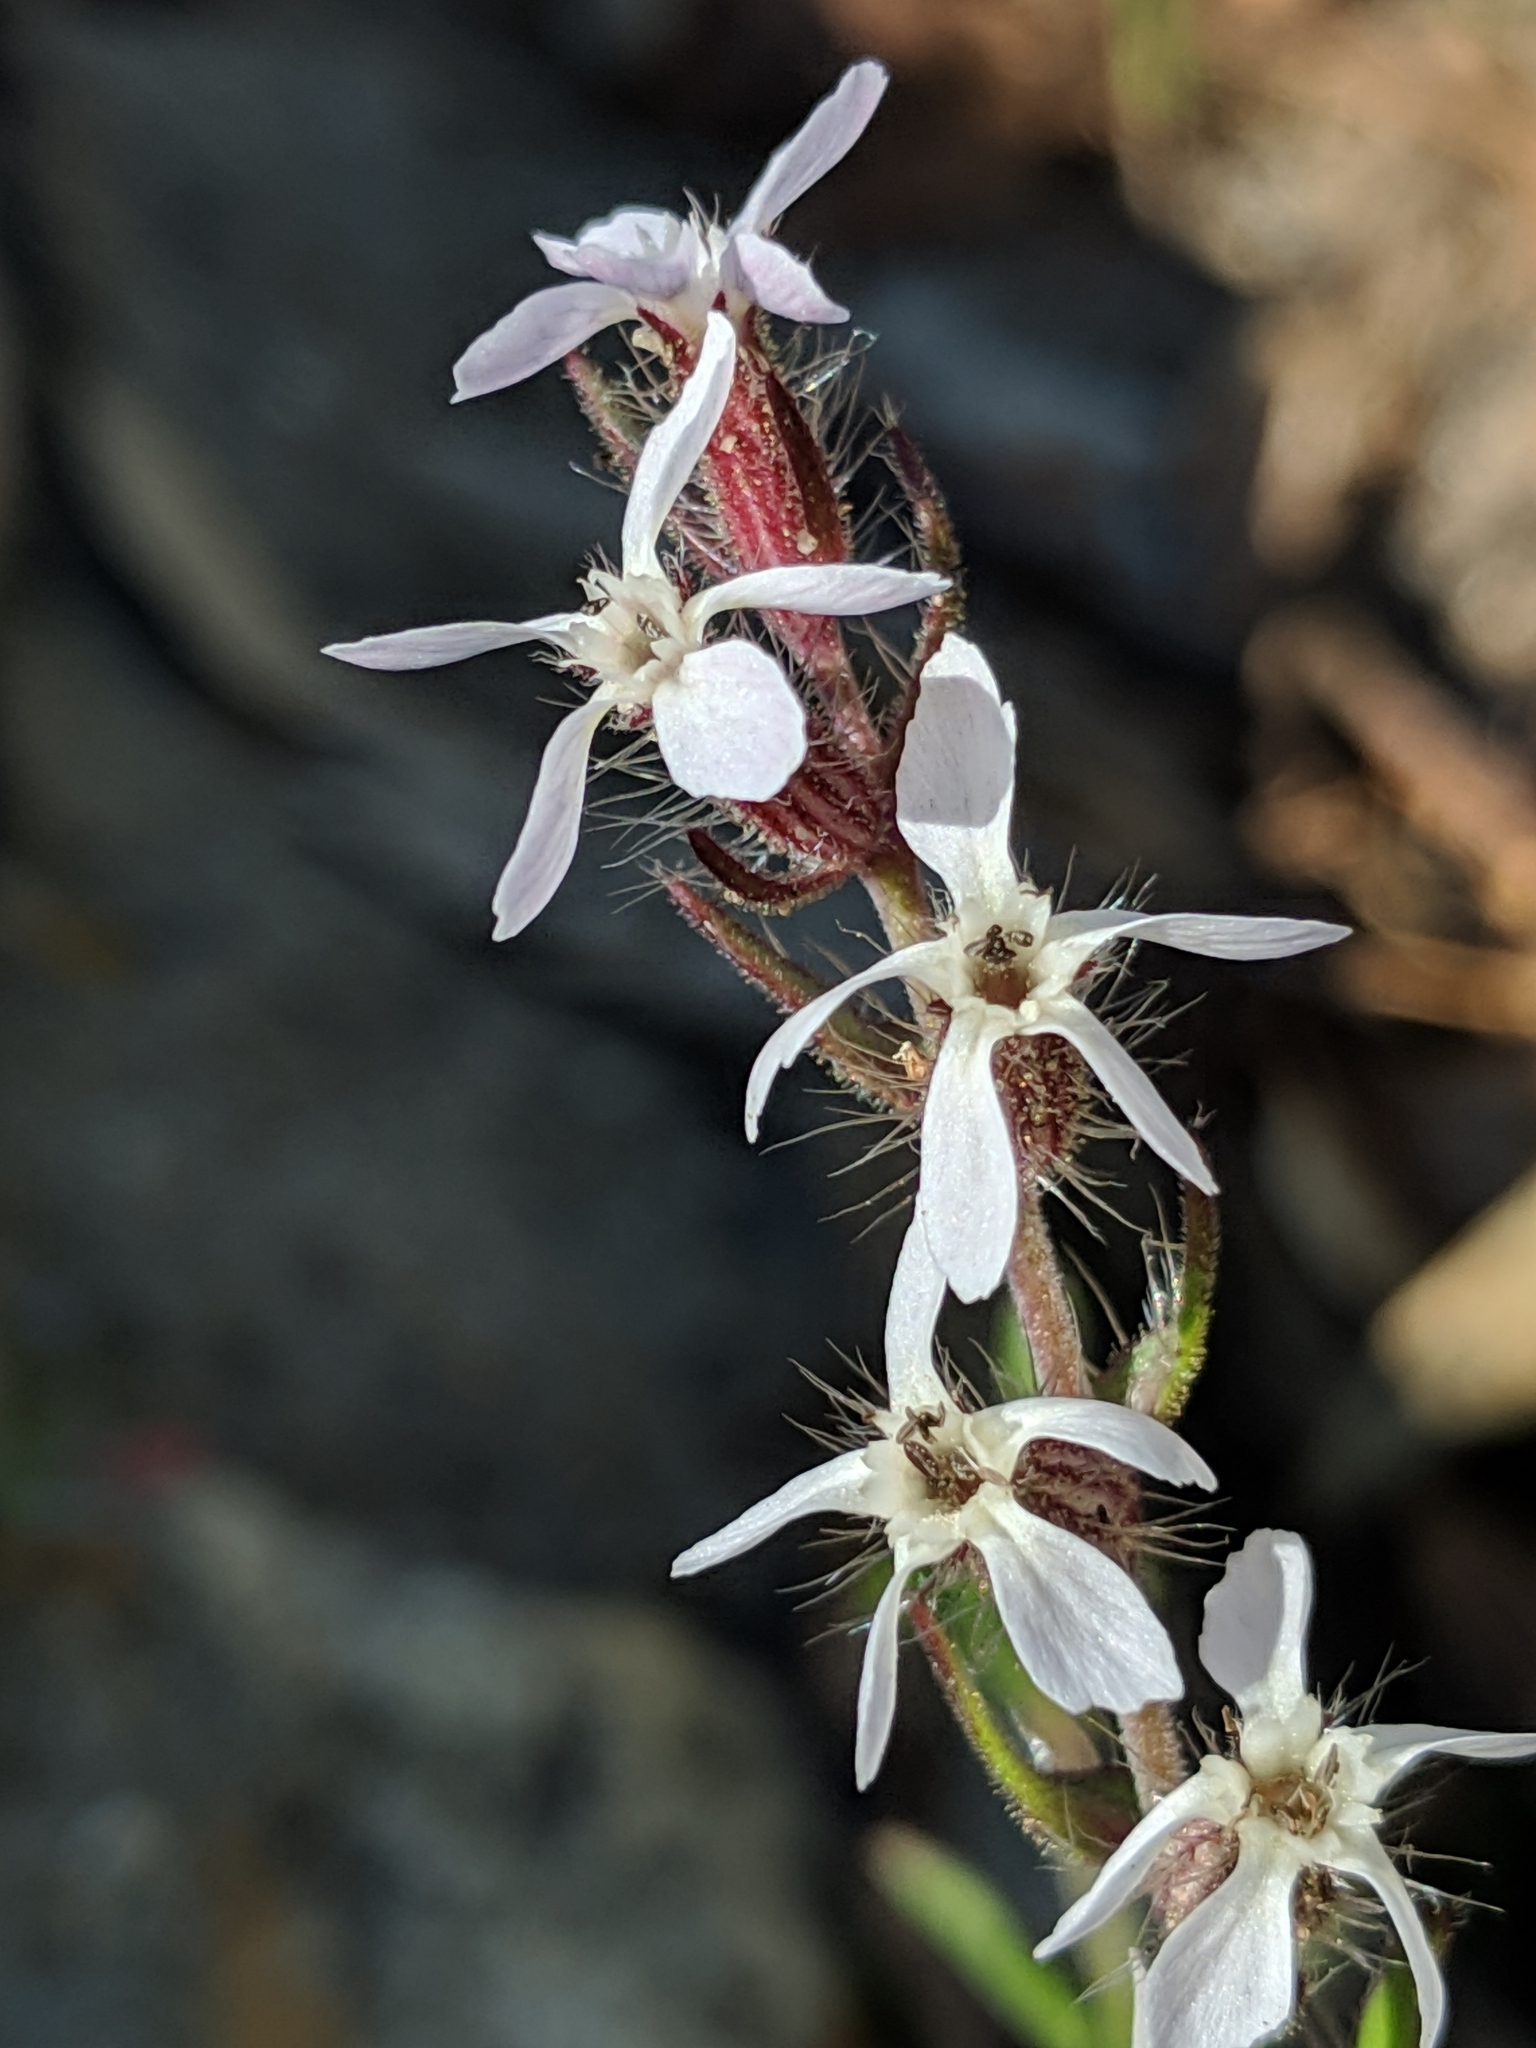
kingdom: Plantae
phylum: Tracheophyta
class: Magnoliopsida
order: Caryophyllales
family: Caryophyllaceae
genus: Silene
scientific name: Silene gallica
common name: Small-flowered catchfly
